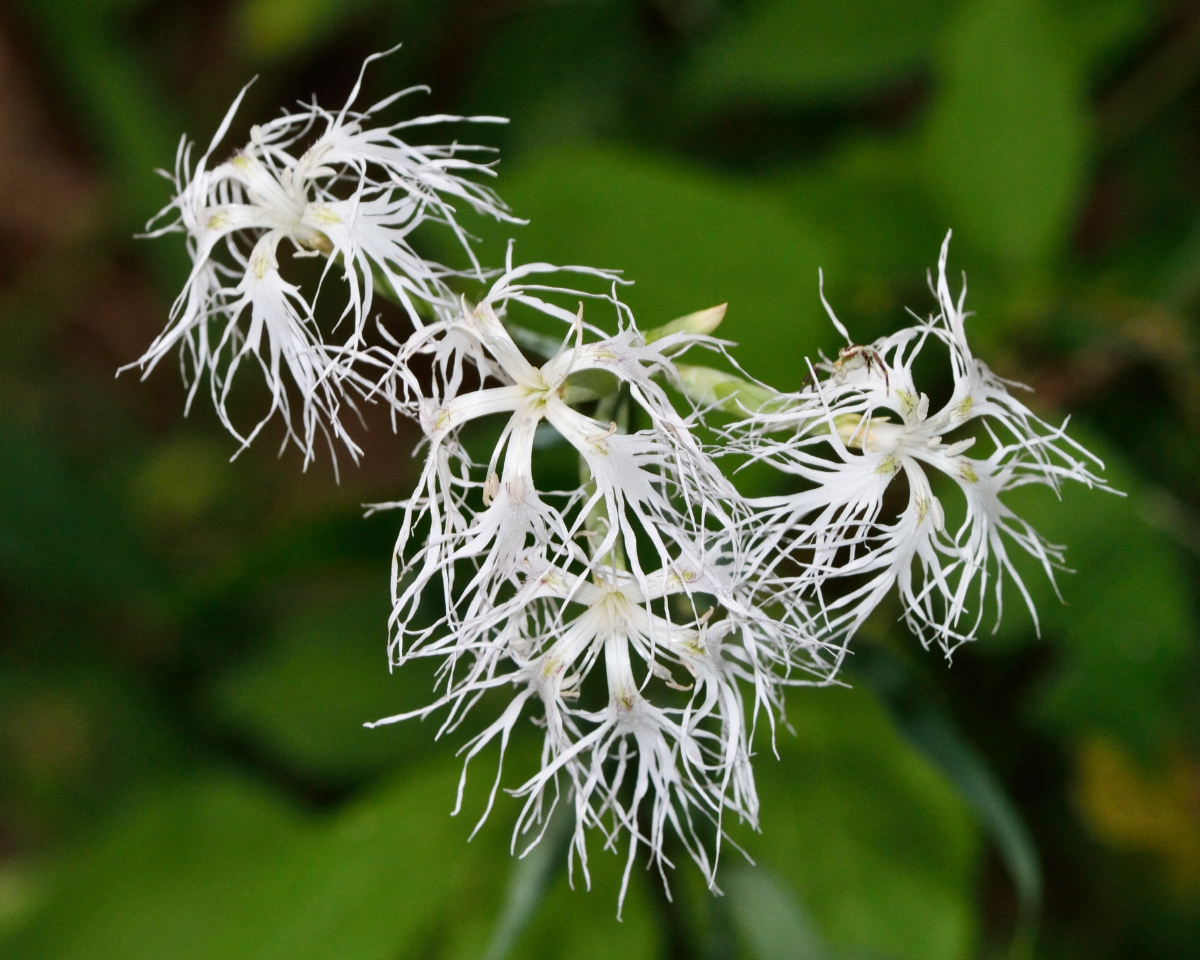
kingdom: Plantae
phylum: Tracheophyta
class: Magnoliopsida
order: Caryophyllales
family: Caryophyllaceae
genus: Dianthus
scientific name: Dianthus superbus
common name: Fringed pink
